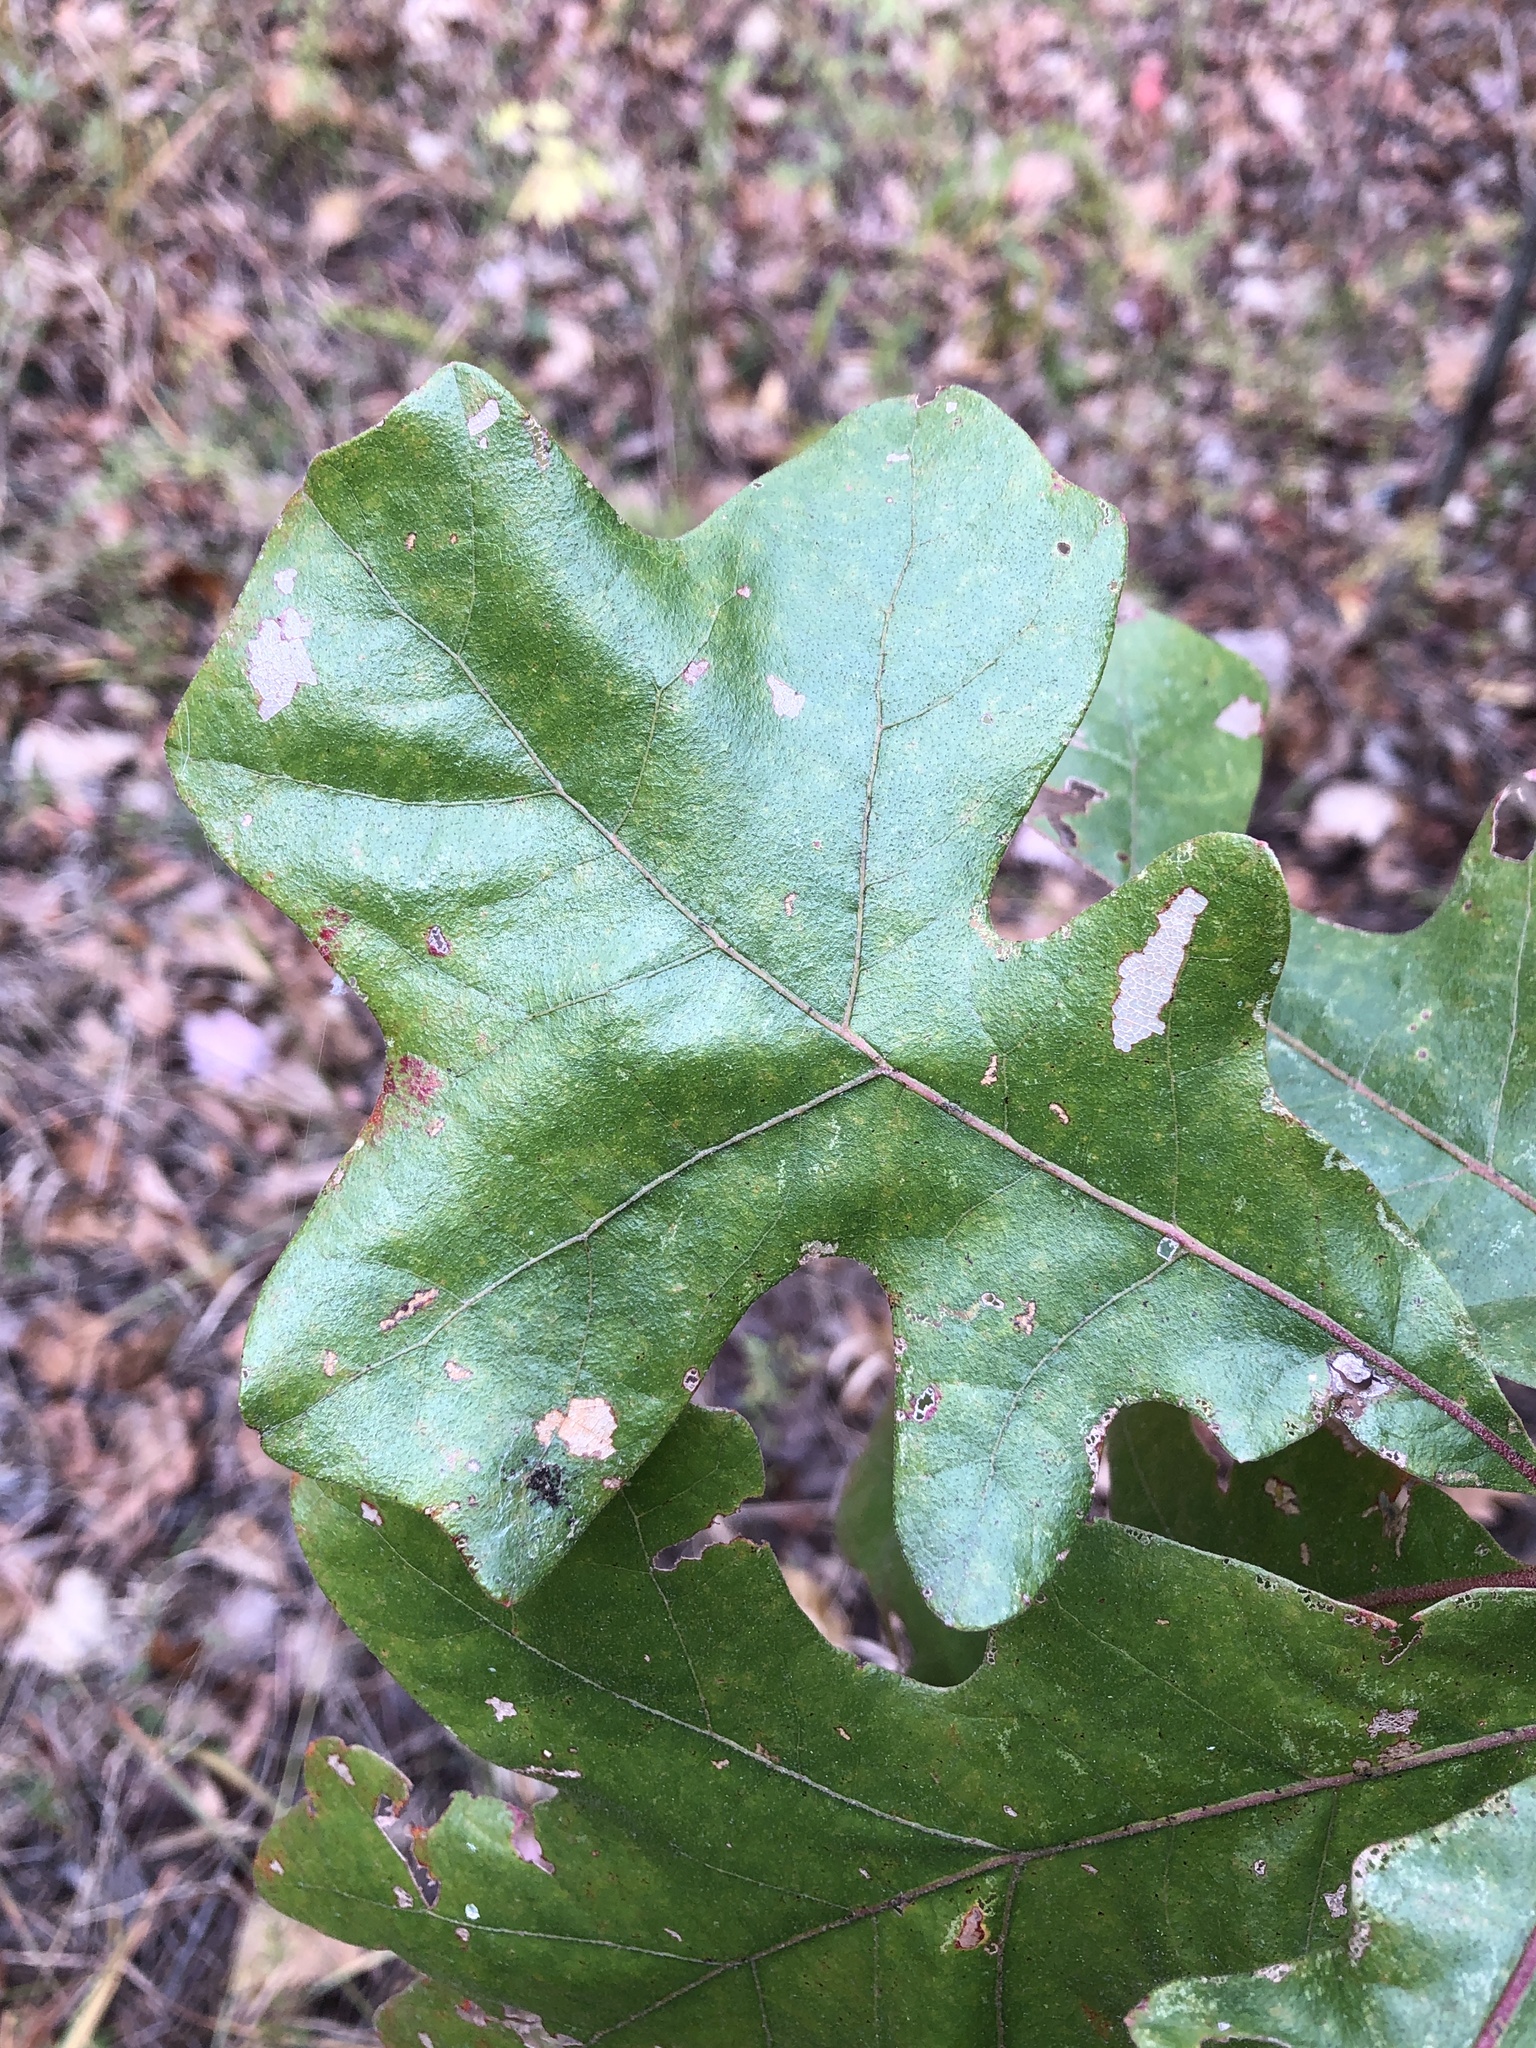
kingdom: Plantae
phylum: Tracheophyta
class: Magnoliopsida
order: Fagales
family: Fagaceae
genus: Quercus
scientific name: Quercus stellata
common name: Post oak
